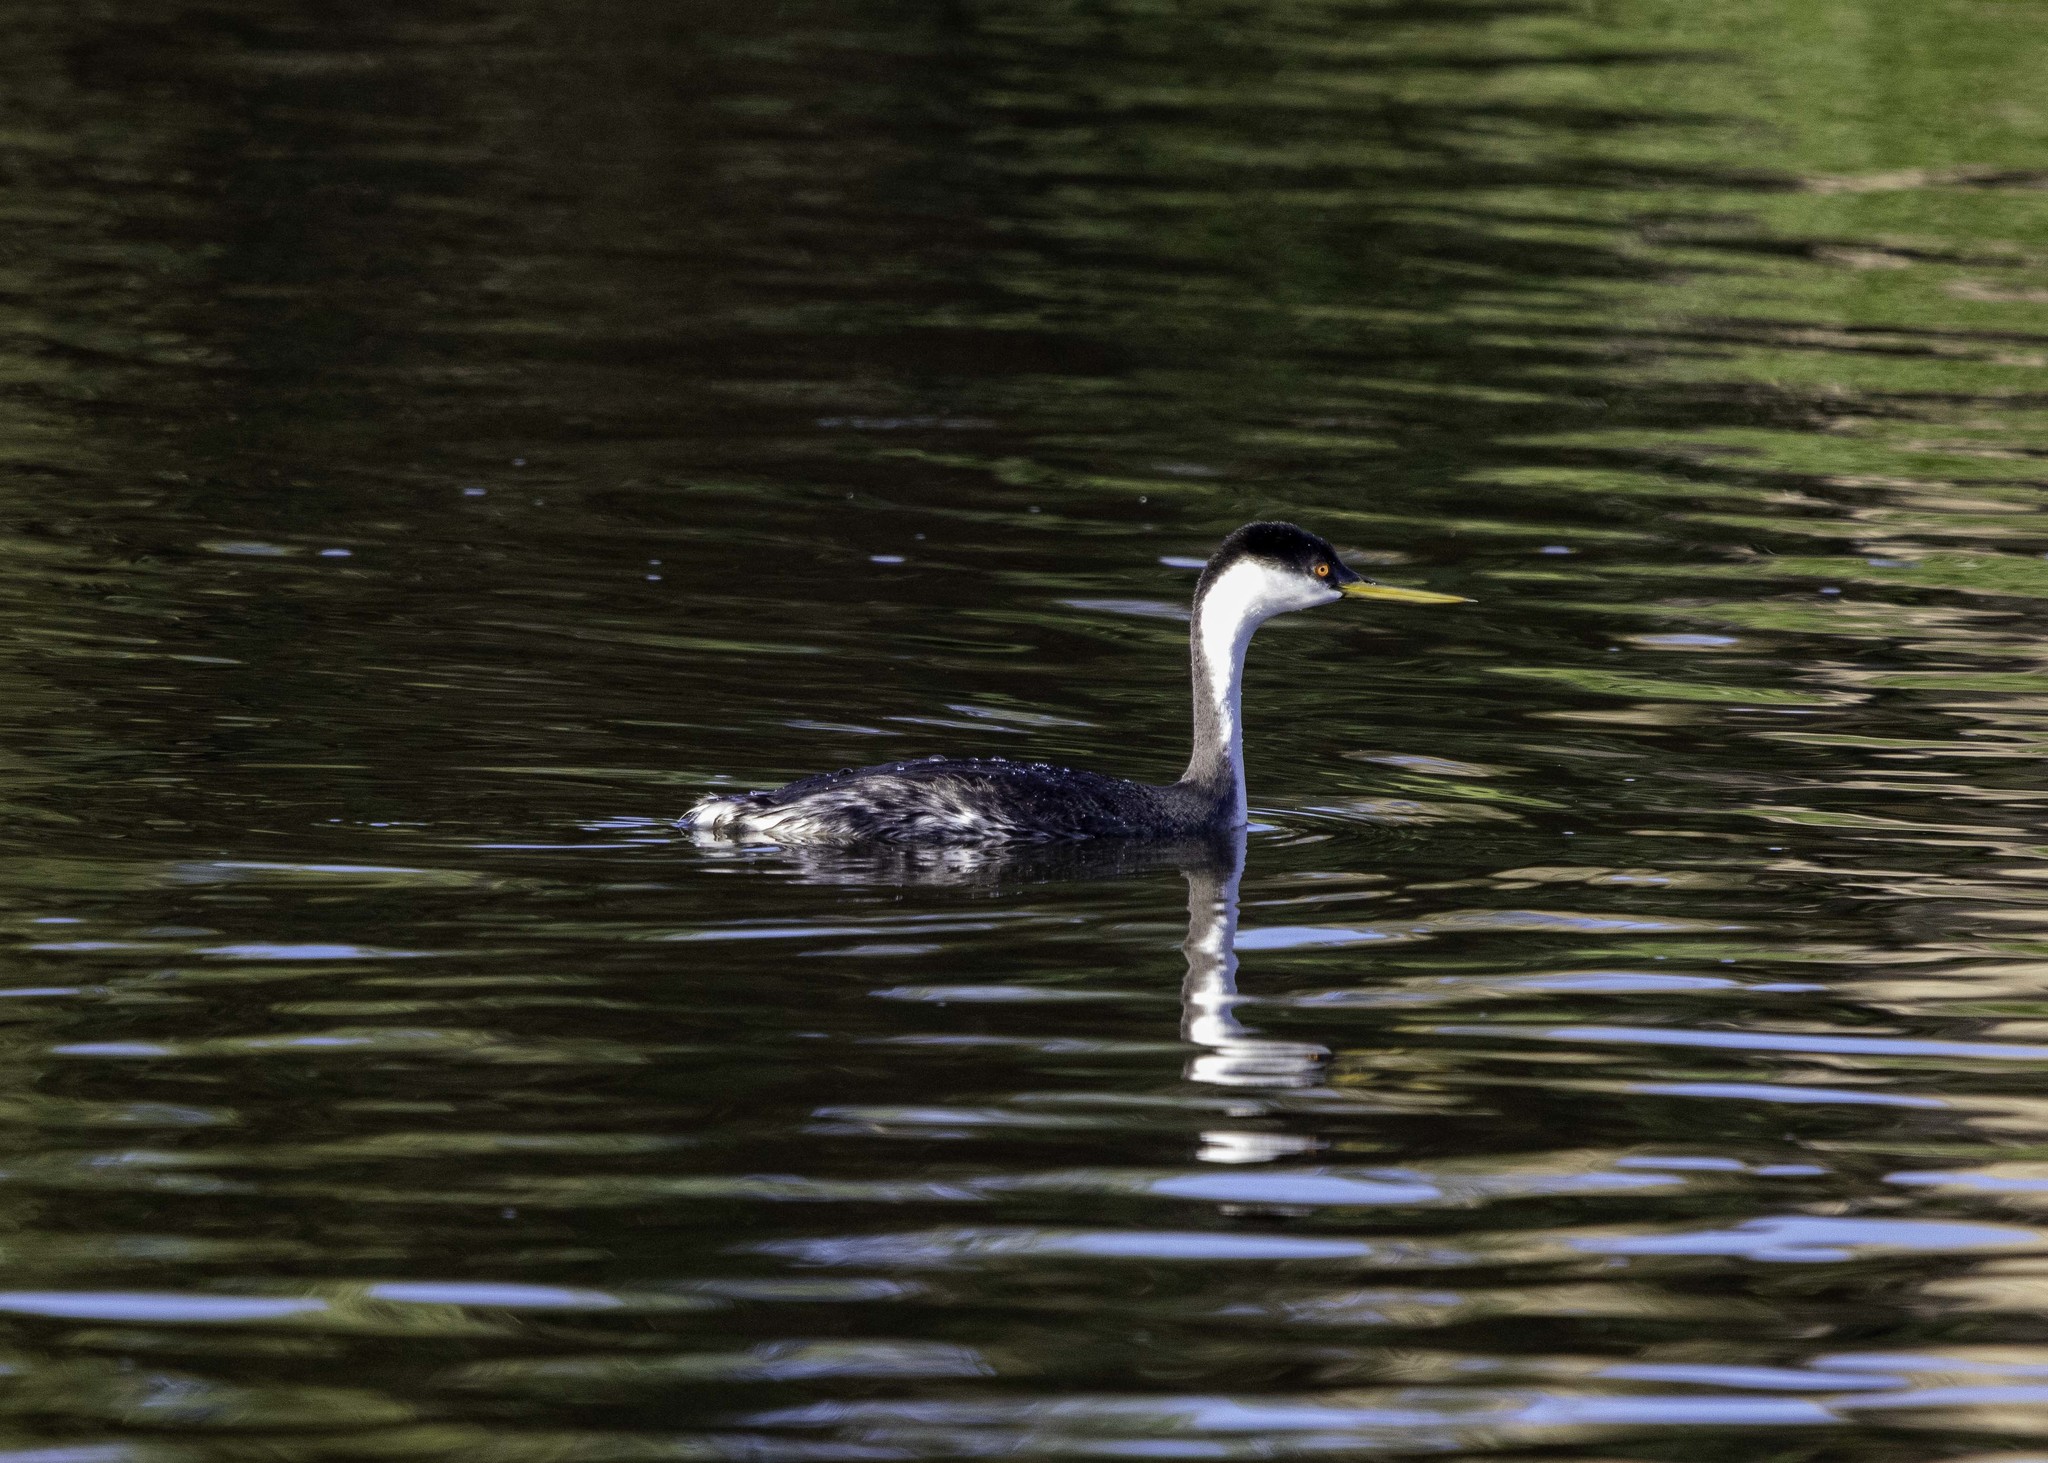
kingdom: Animalia
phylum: Chordata
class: Aves
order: Podicipediformes
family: Podicipedidae
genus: Aechmophorus
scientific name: Aechmophorus occidentalis
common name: Western grebe
